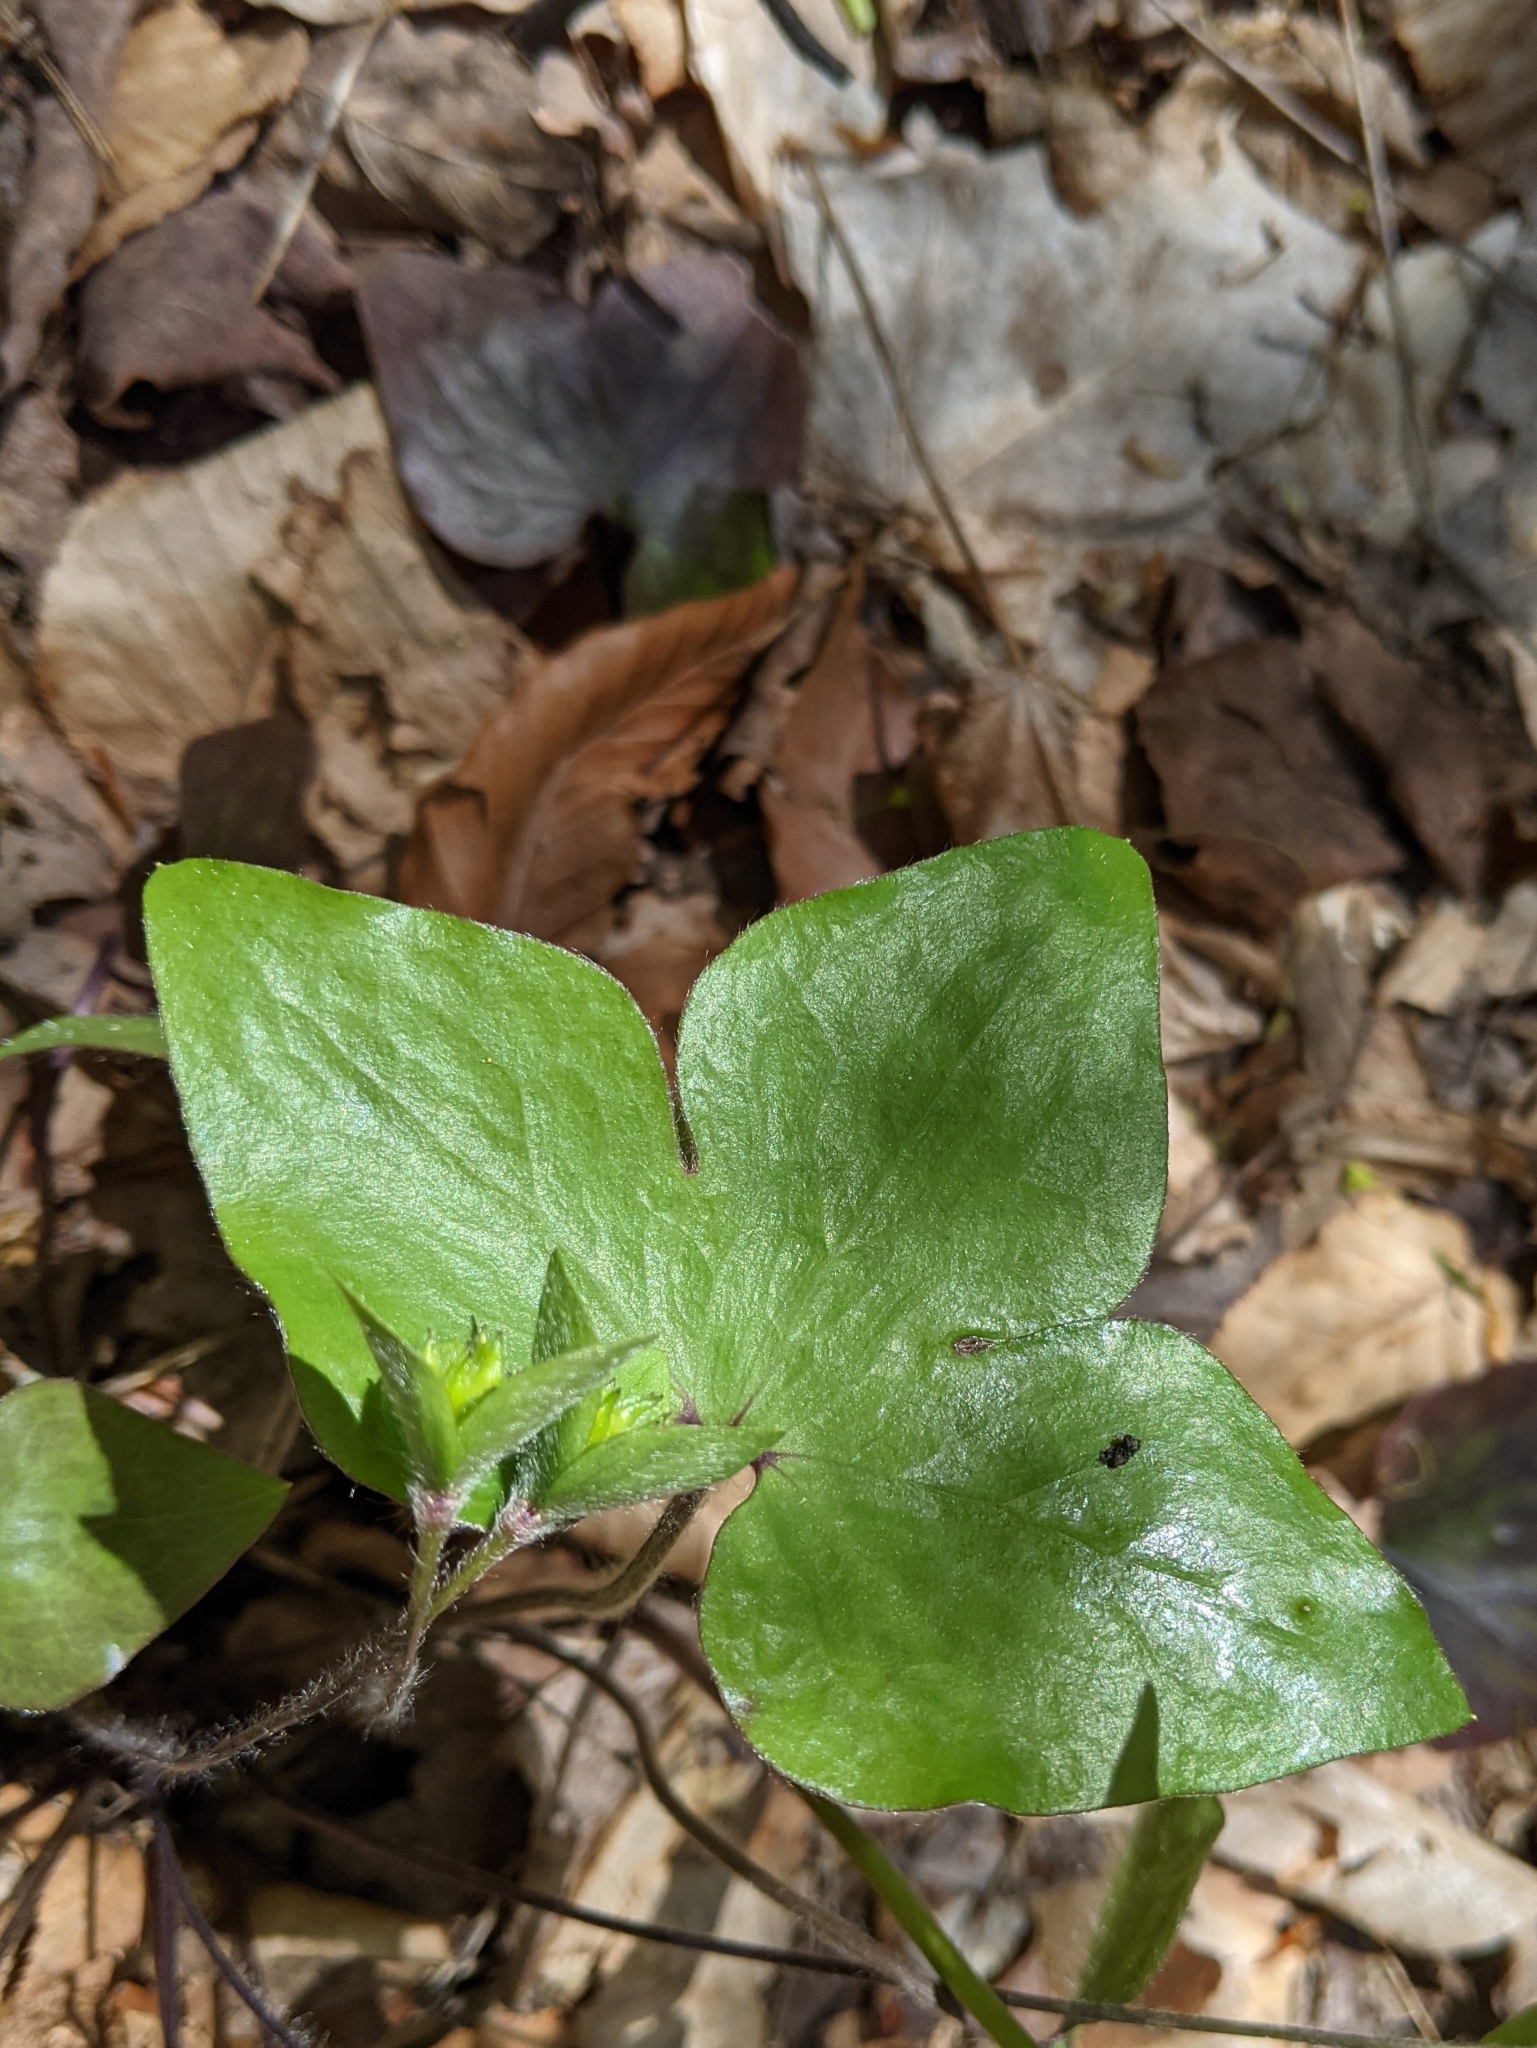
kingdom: Plantae
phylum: Tracheophyta
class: Magnoliopsida
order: Ranunculales
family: Ranunculaceae
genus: Hepatica
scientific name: Hepatica acutiloba
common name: Sharp-lobed hepatica
